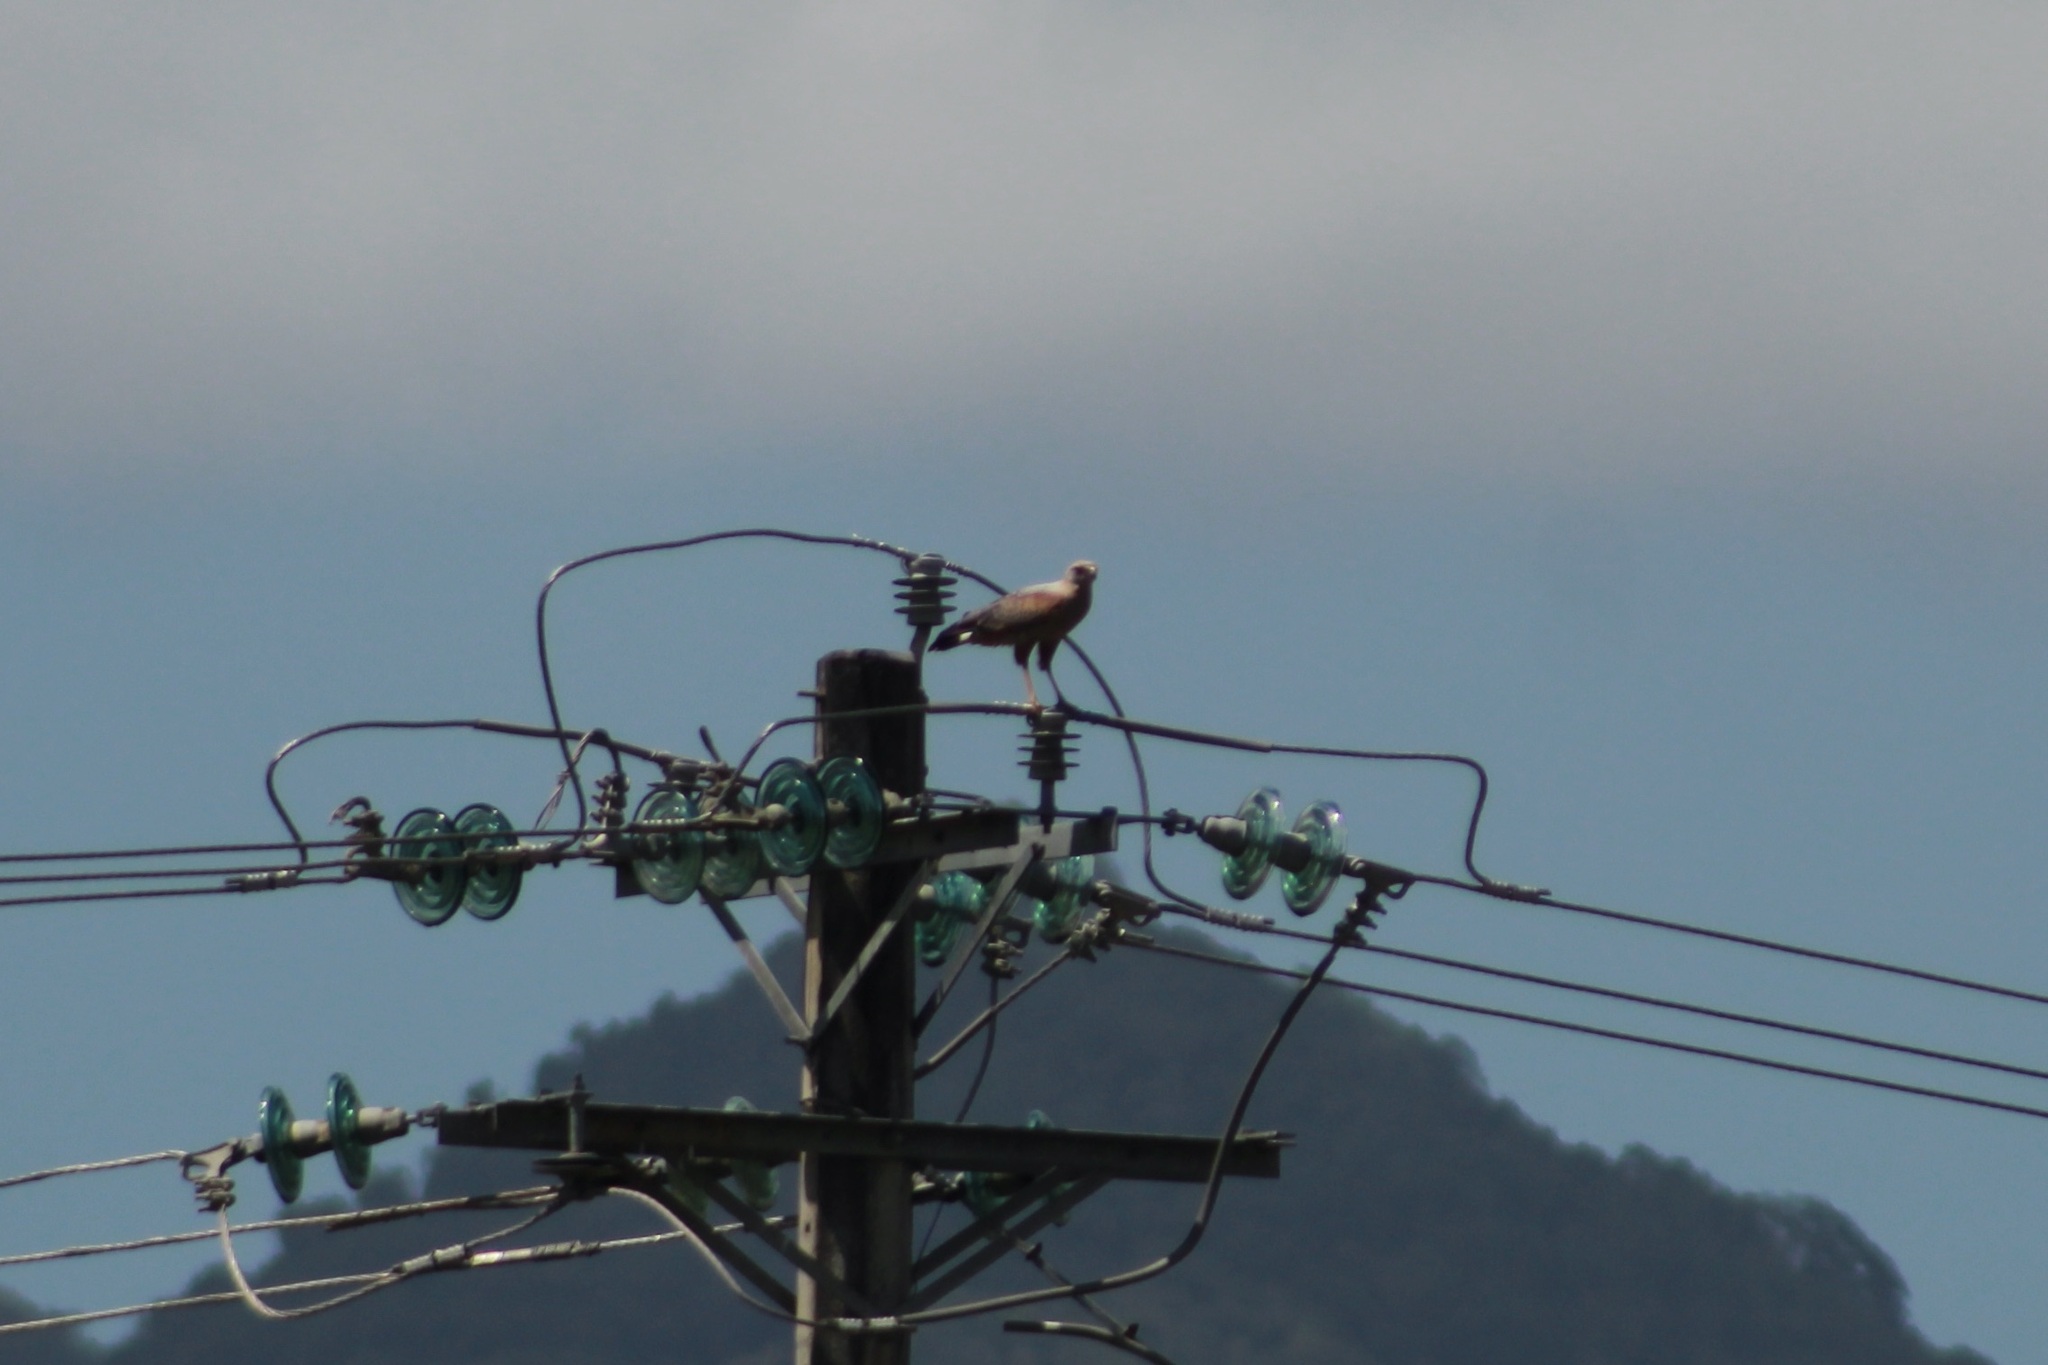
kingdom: Animalia
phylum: Chordata
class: Aves
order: Accipitriformes
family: Accipitridae
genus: Buteogallus
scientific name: Buteogallus meridionalis
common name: Savanna hawk
